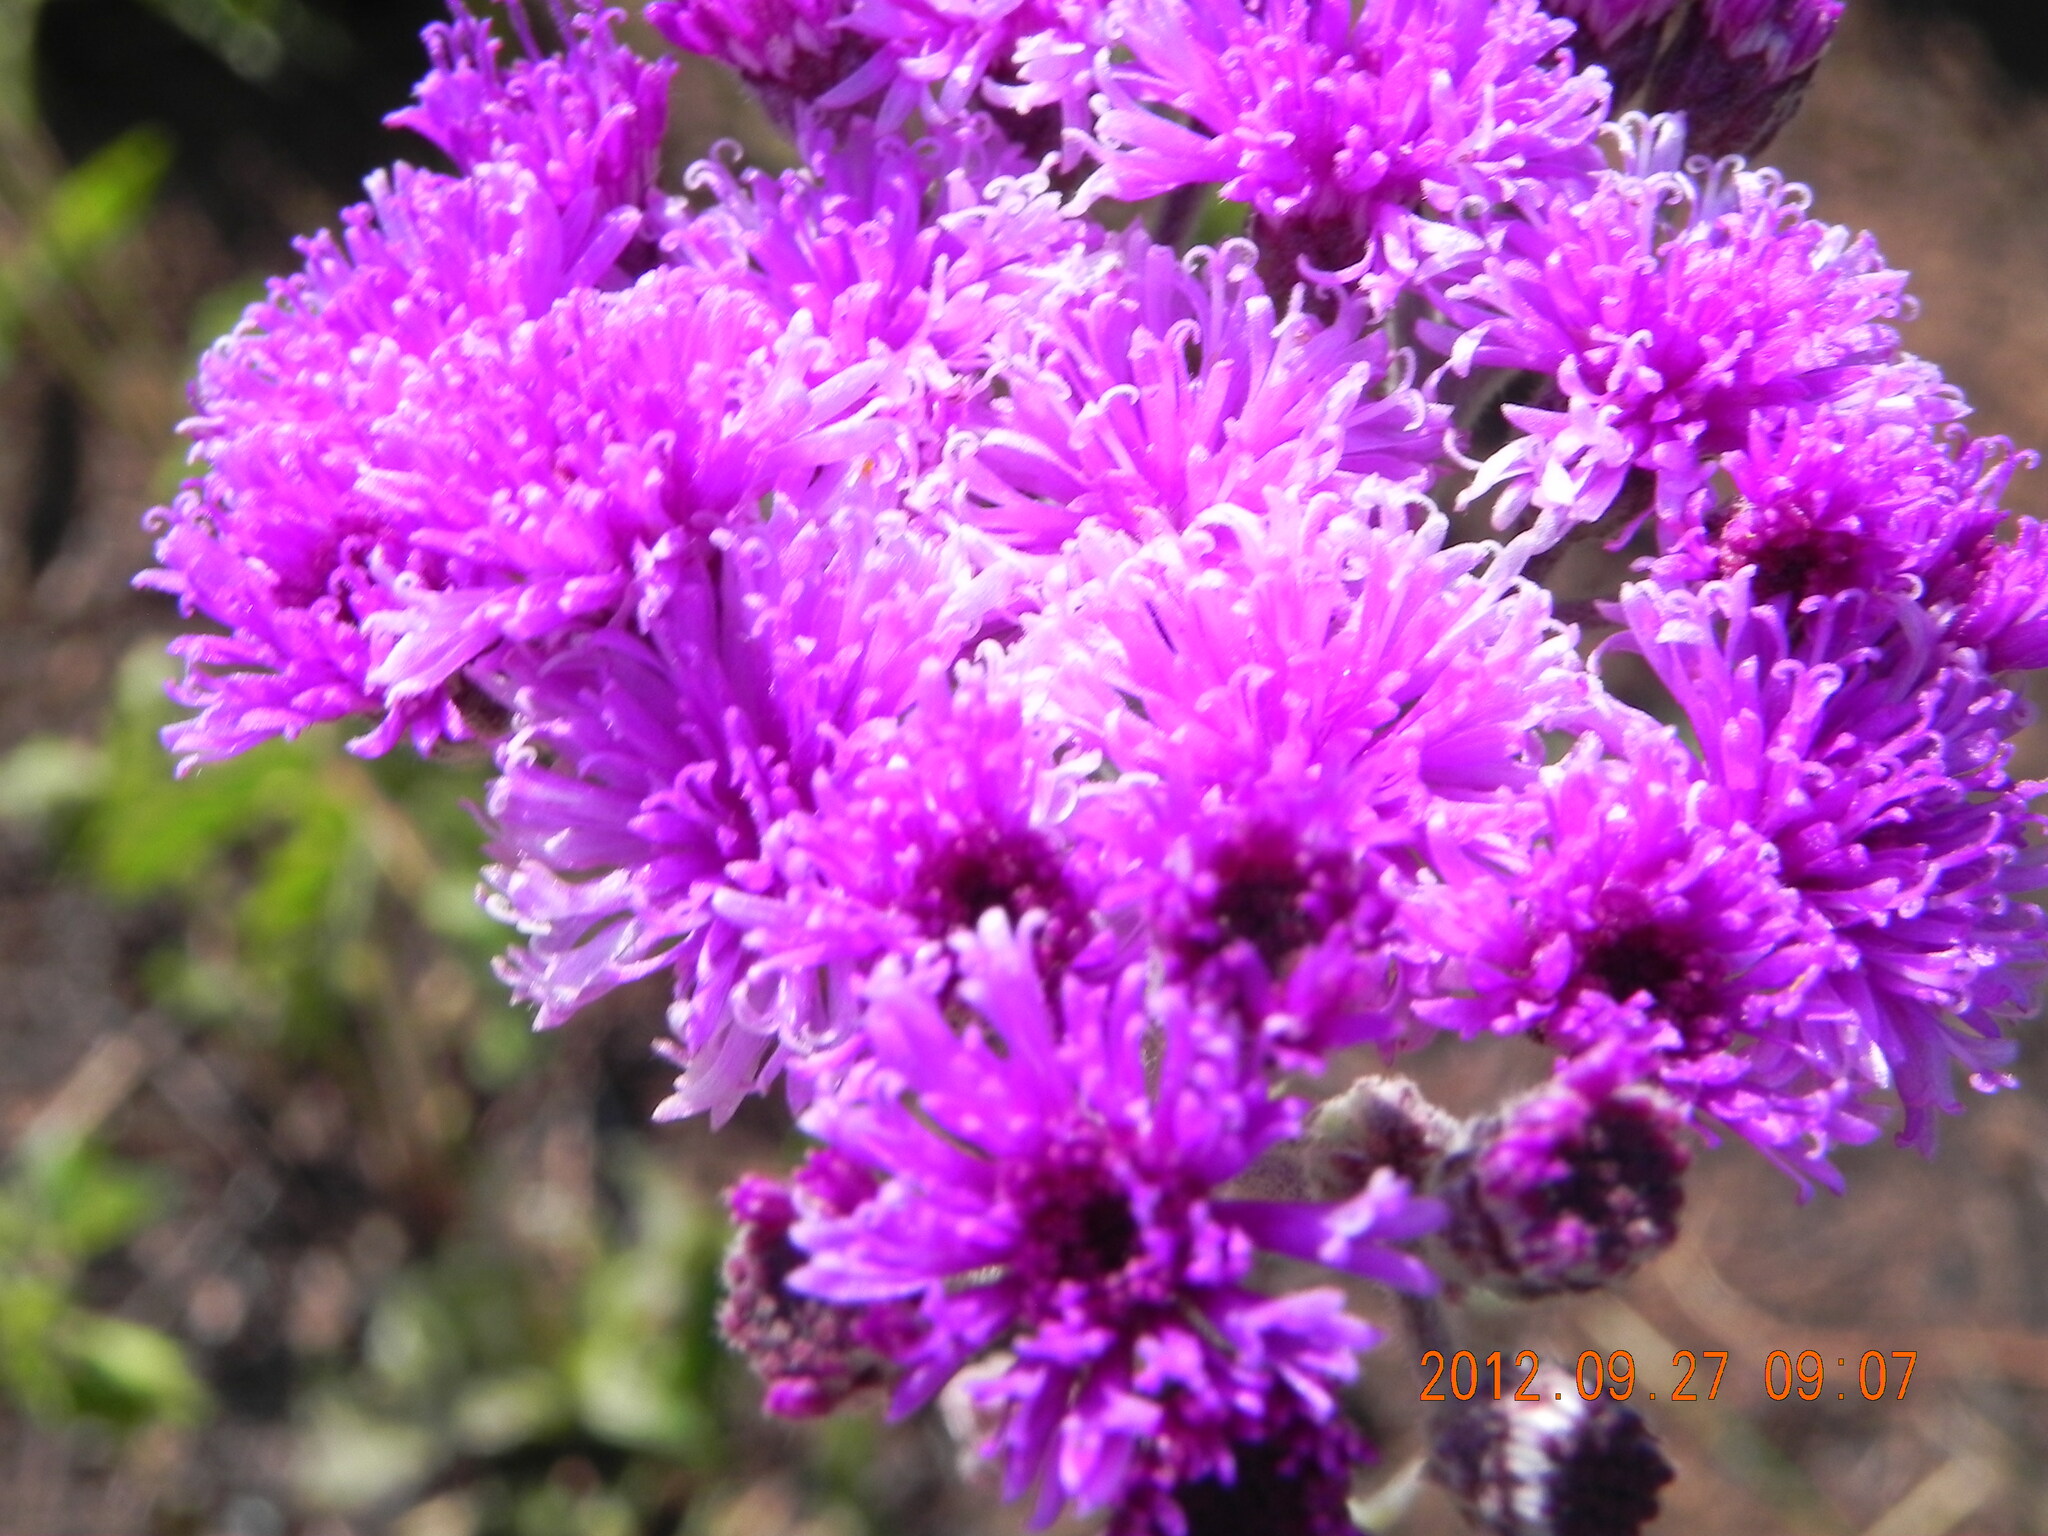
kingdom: Plantae
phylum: Tracheophyta
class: Magnoliopsida
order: Asterales
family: Asteraceae
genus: Hilliardiella
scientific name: Hilliardiella hirsuta
